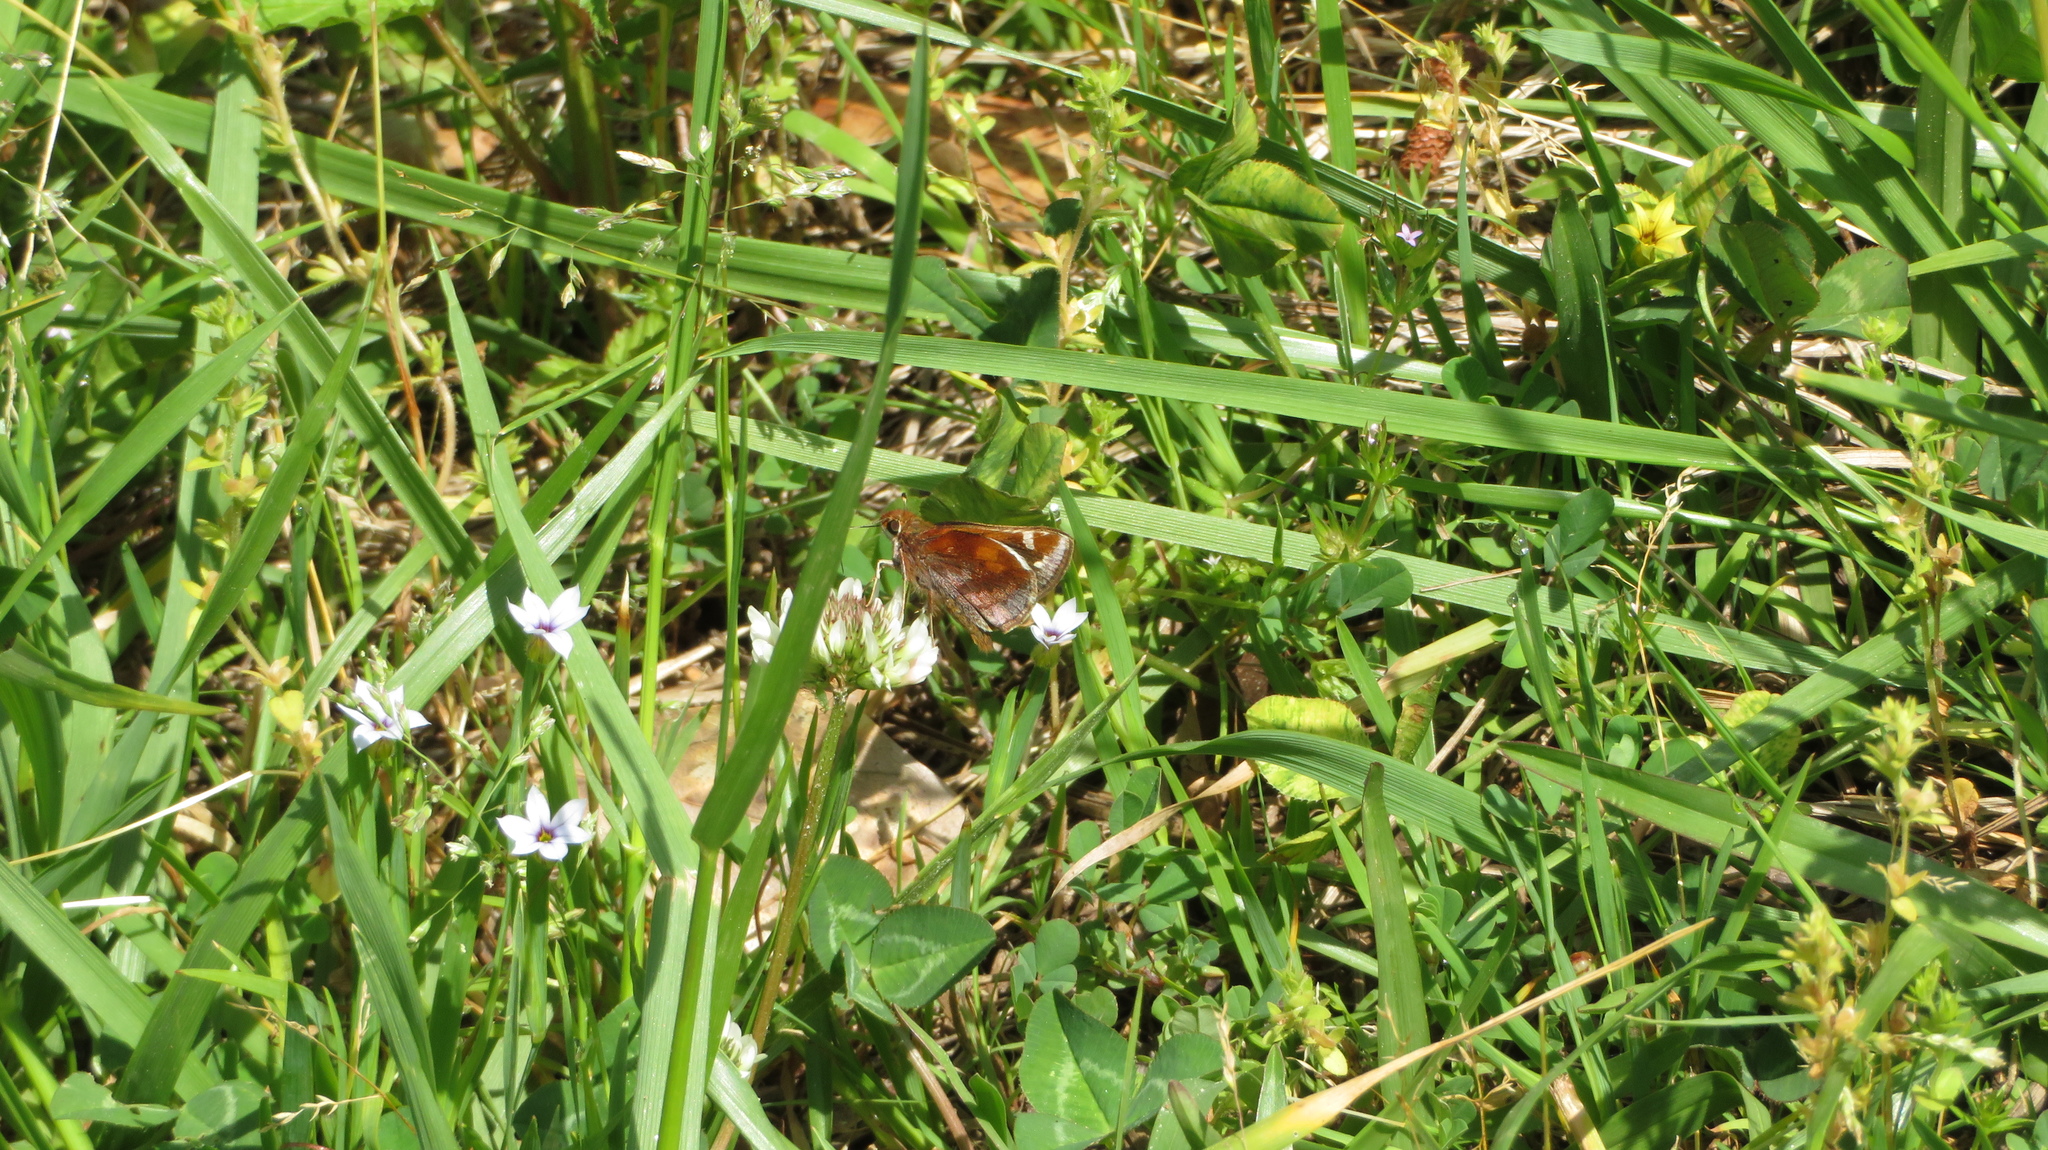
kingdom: Animalia
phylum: Arthropoda
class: Insecta
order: Lepidoptera
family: Hesperiidae
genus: Lon
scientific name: Lon zabulon
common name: Zabulon skipper
